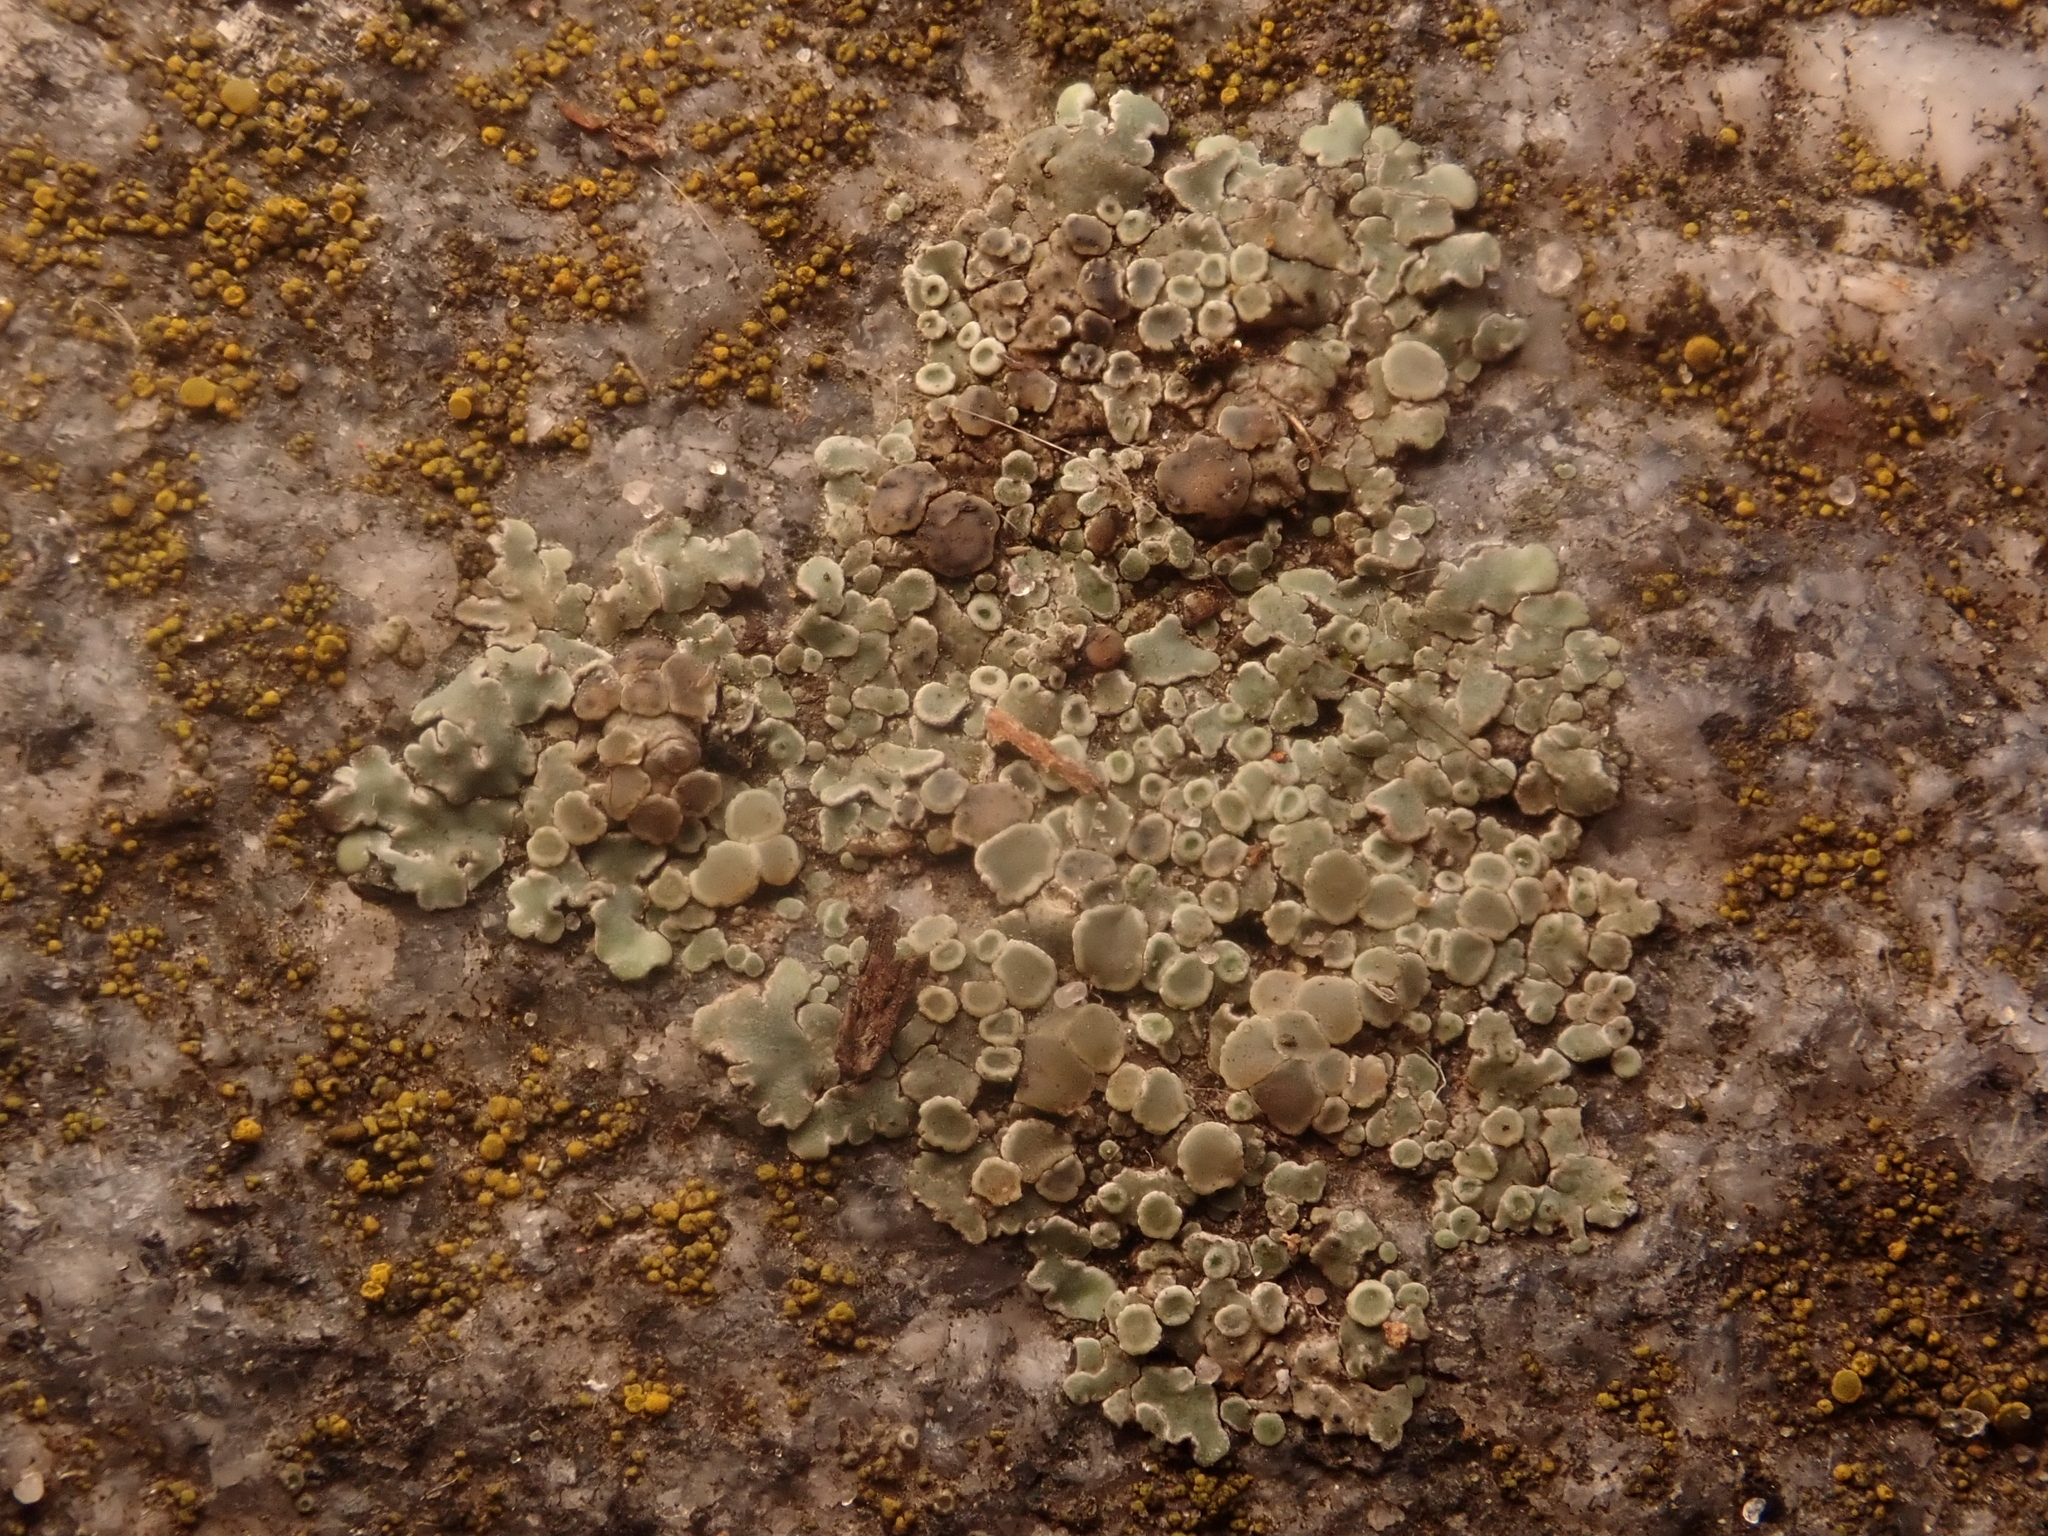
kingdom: Fungi
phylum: Ascomycota
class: Lecanoromycetes
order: Lecanorales
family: Lecanoraceae
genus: Protoparmeliopsis
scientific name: Protoparmeliopsis muralis
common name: Stonewall rim lichen
